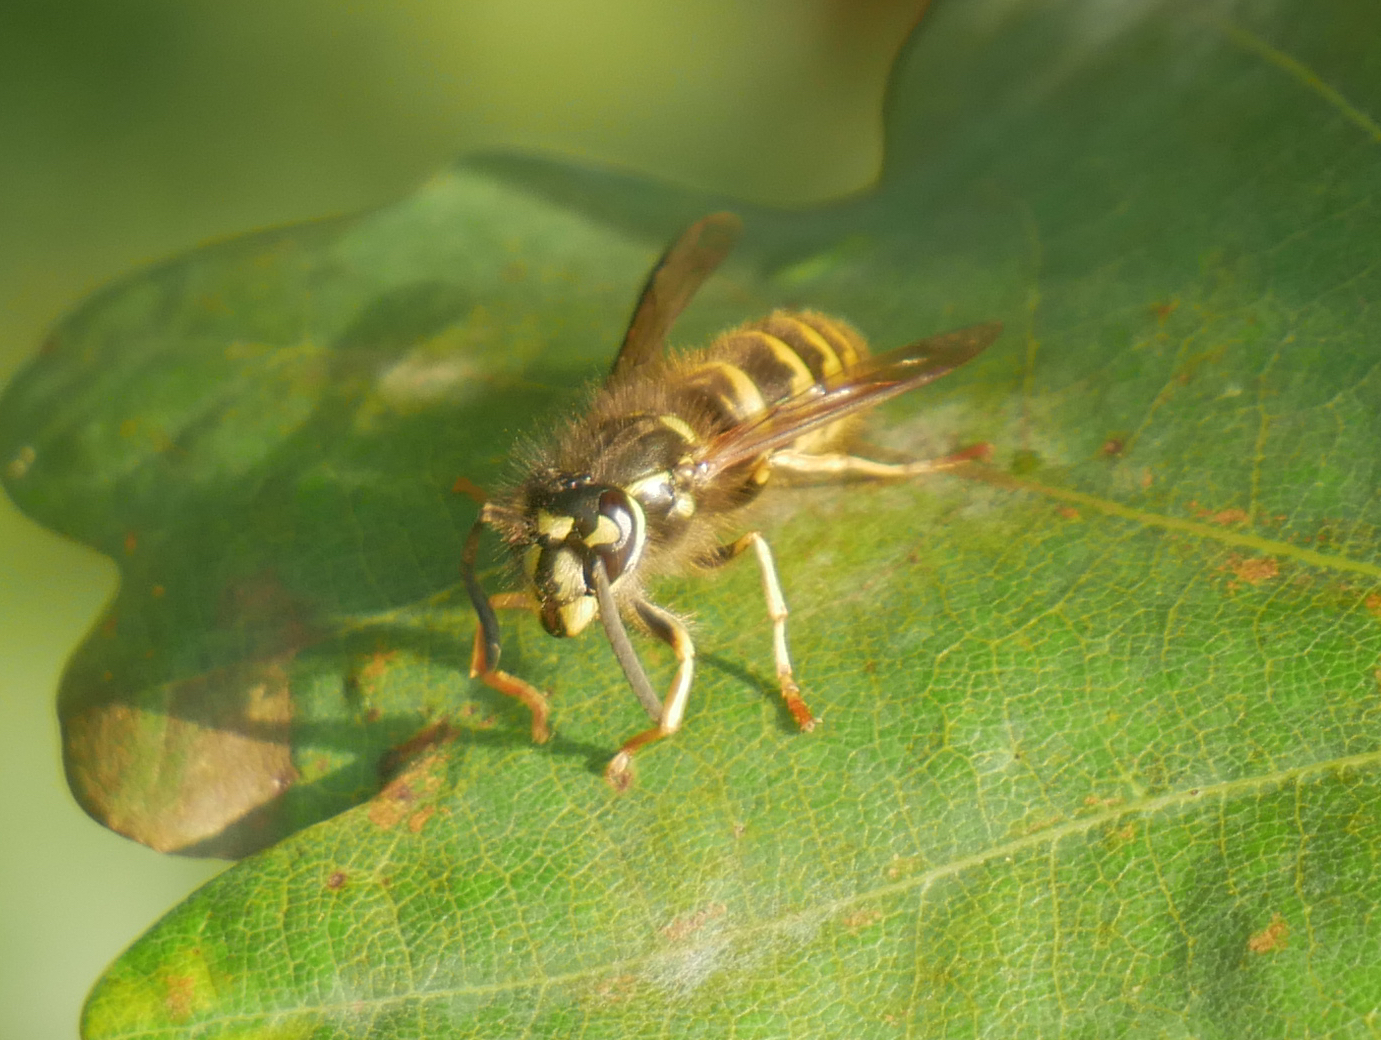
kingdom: Animalia
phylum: Arthropoda
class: Insecta
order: Hymenoptera
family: Vespidae
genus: Vespula
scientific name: Vespula vulgaris
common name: Common wasp
